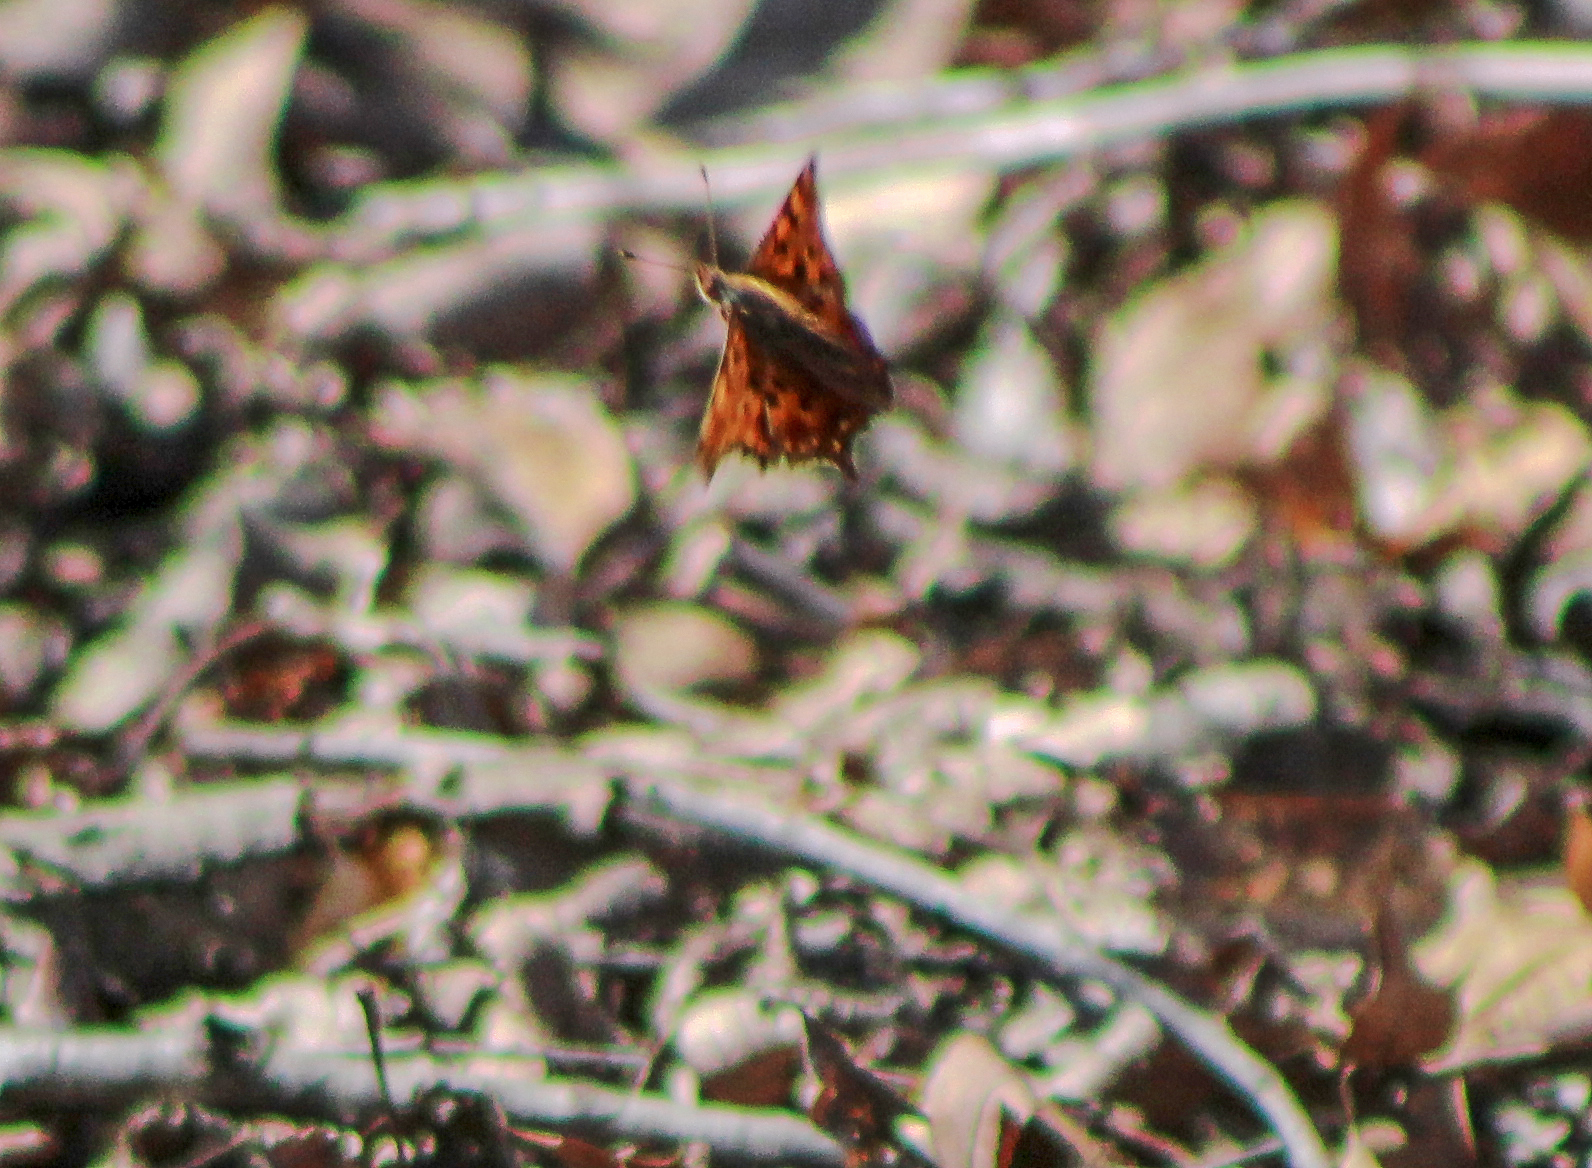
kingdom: Animalia
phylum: Arthropoda
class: Insecta
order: Lepidoptera
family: Nymphalidae
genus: Polygonia
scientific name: Polygonia comma
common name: Eastern comma
